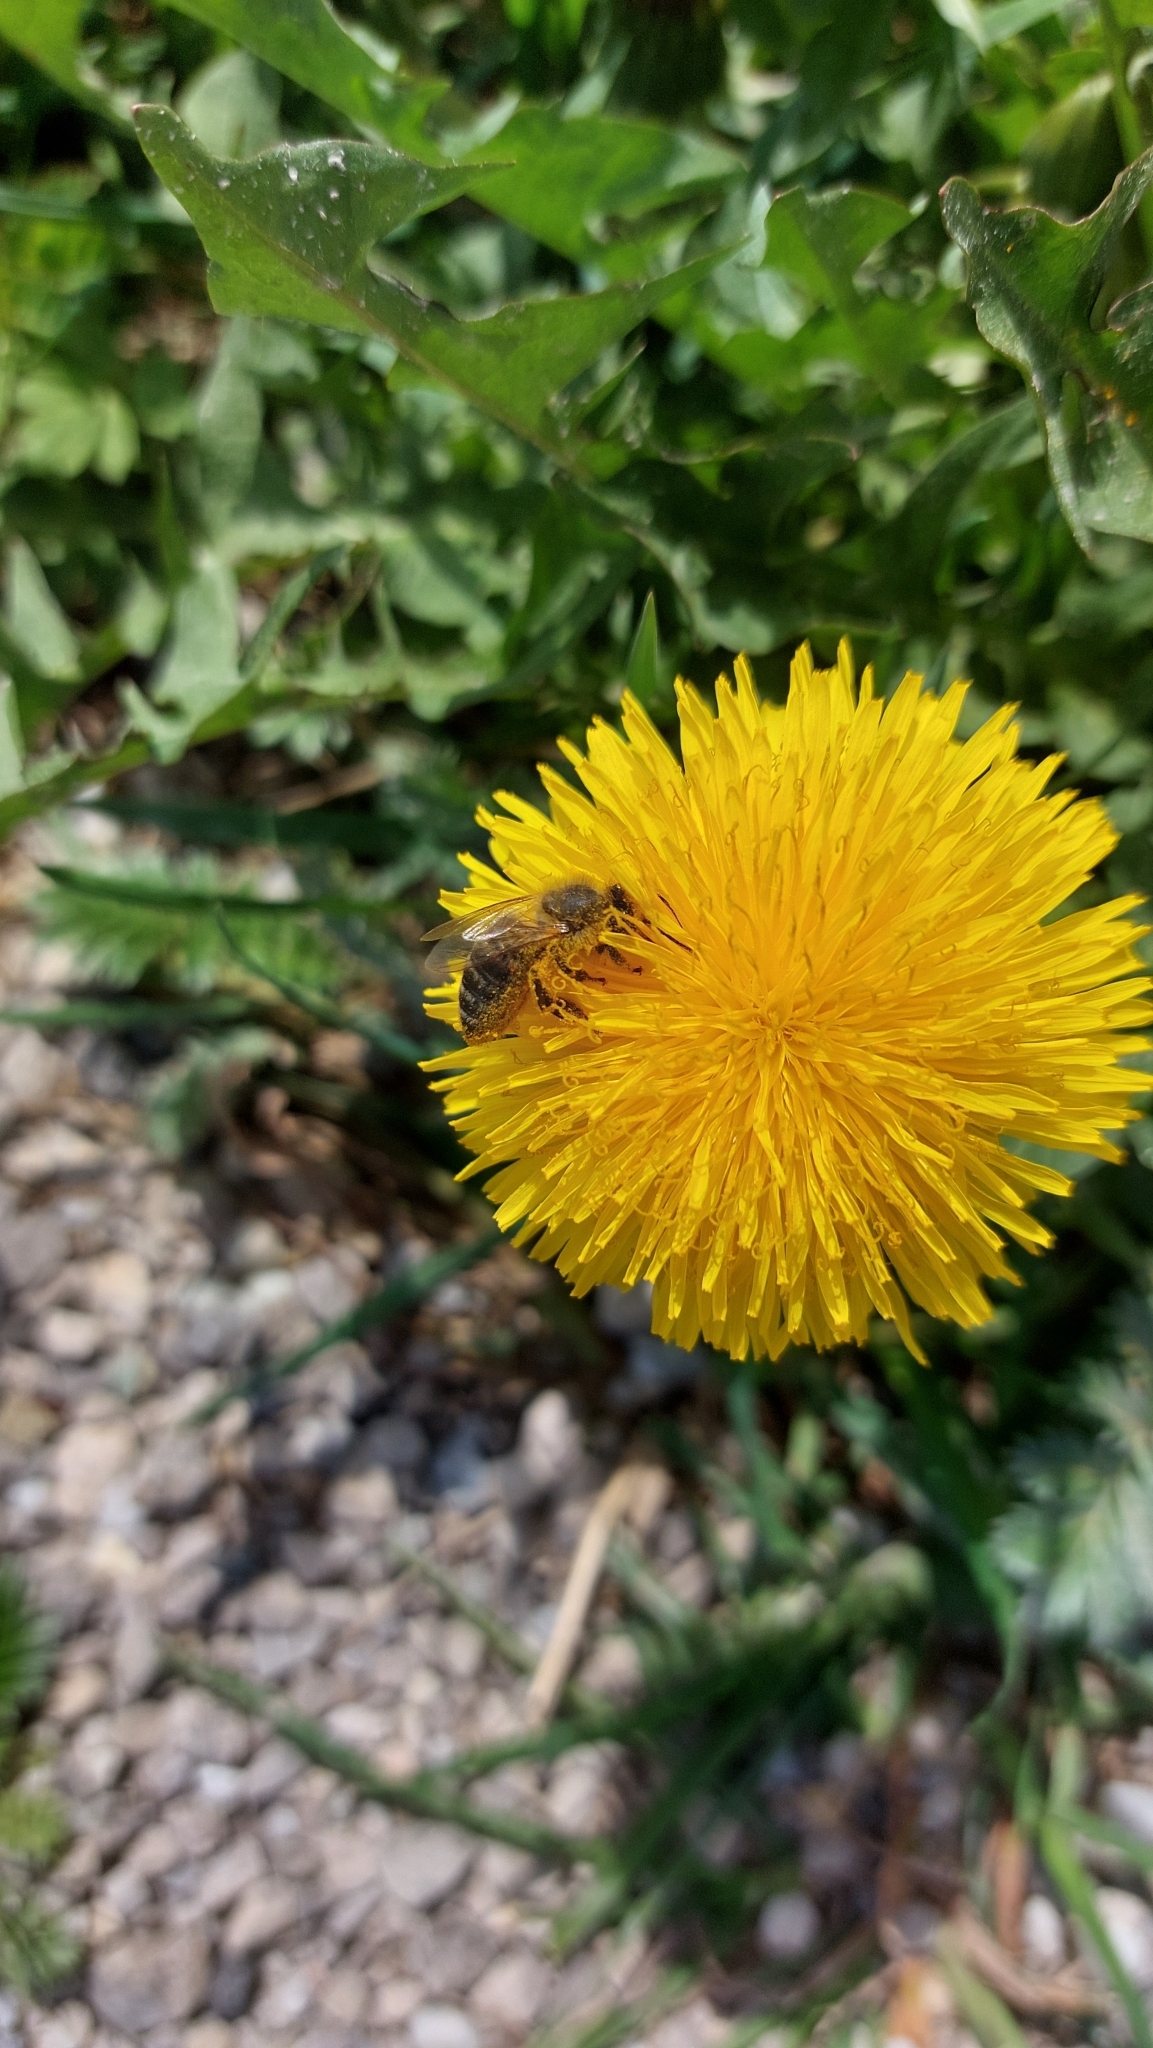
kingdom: Animalia
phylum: Arthropoda
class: Insecta
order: Hymenoptera
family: Apidae
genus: Apis
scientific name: Apis mellifera
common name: Honey bee
